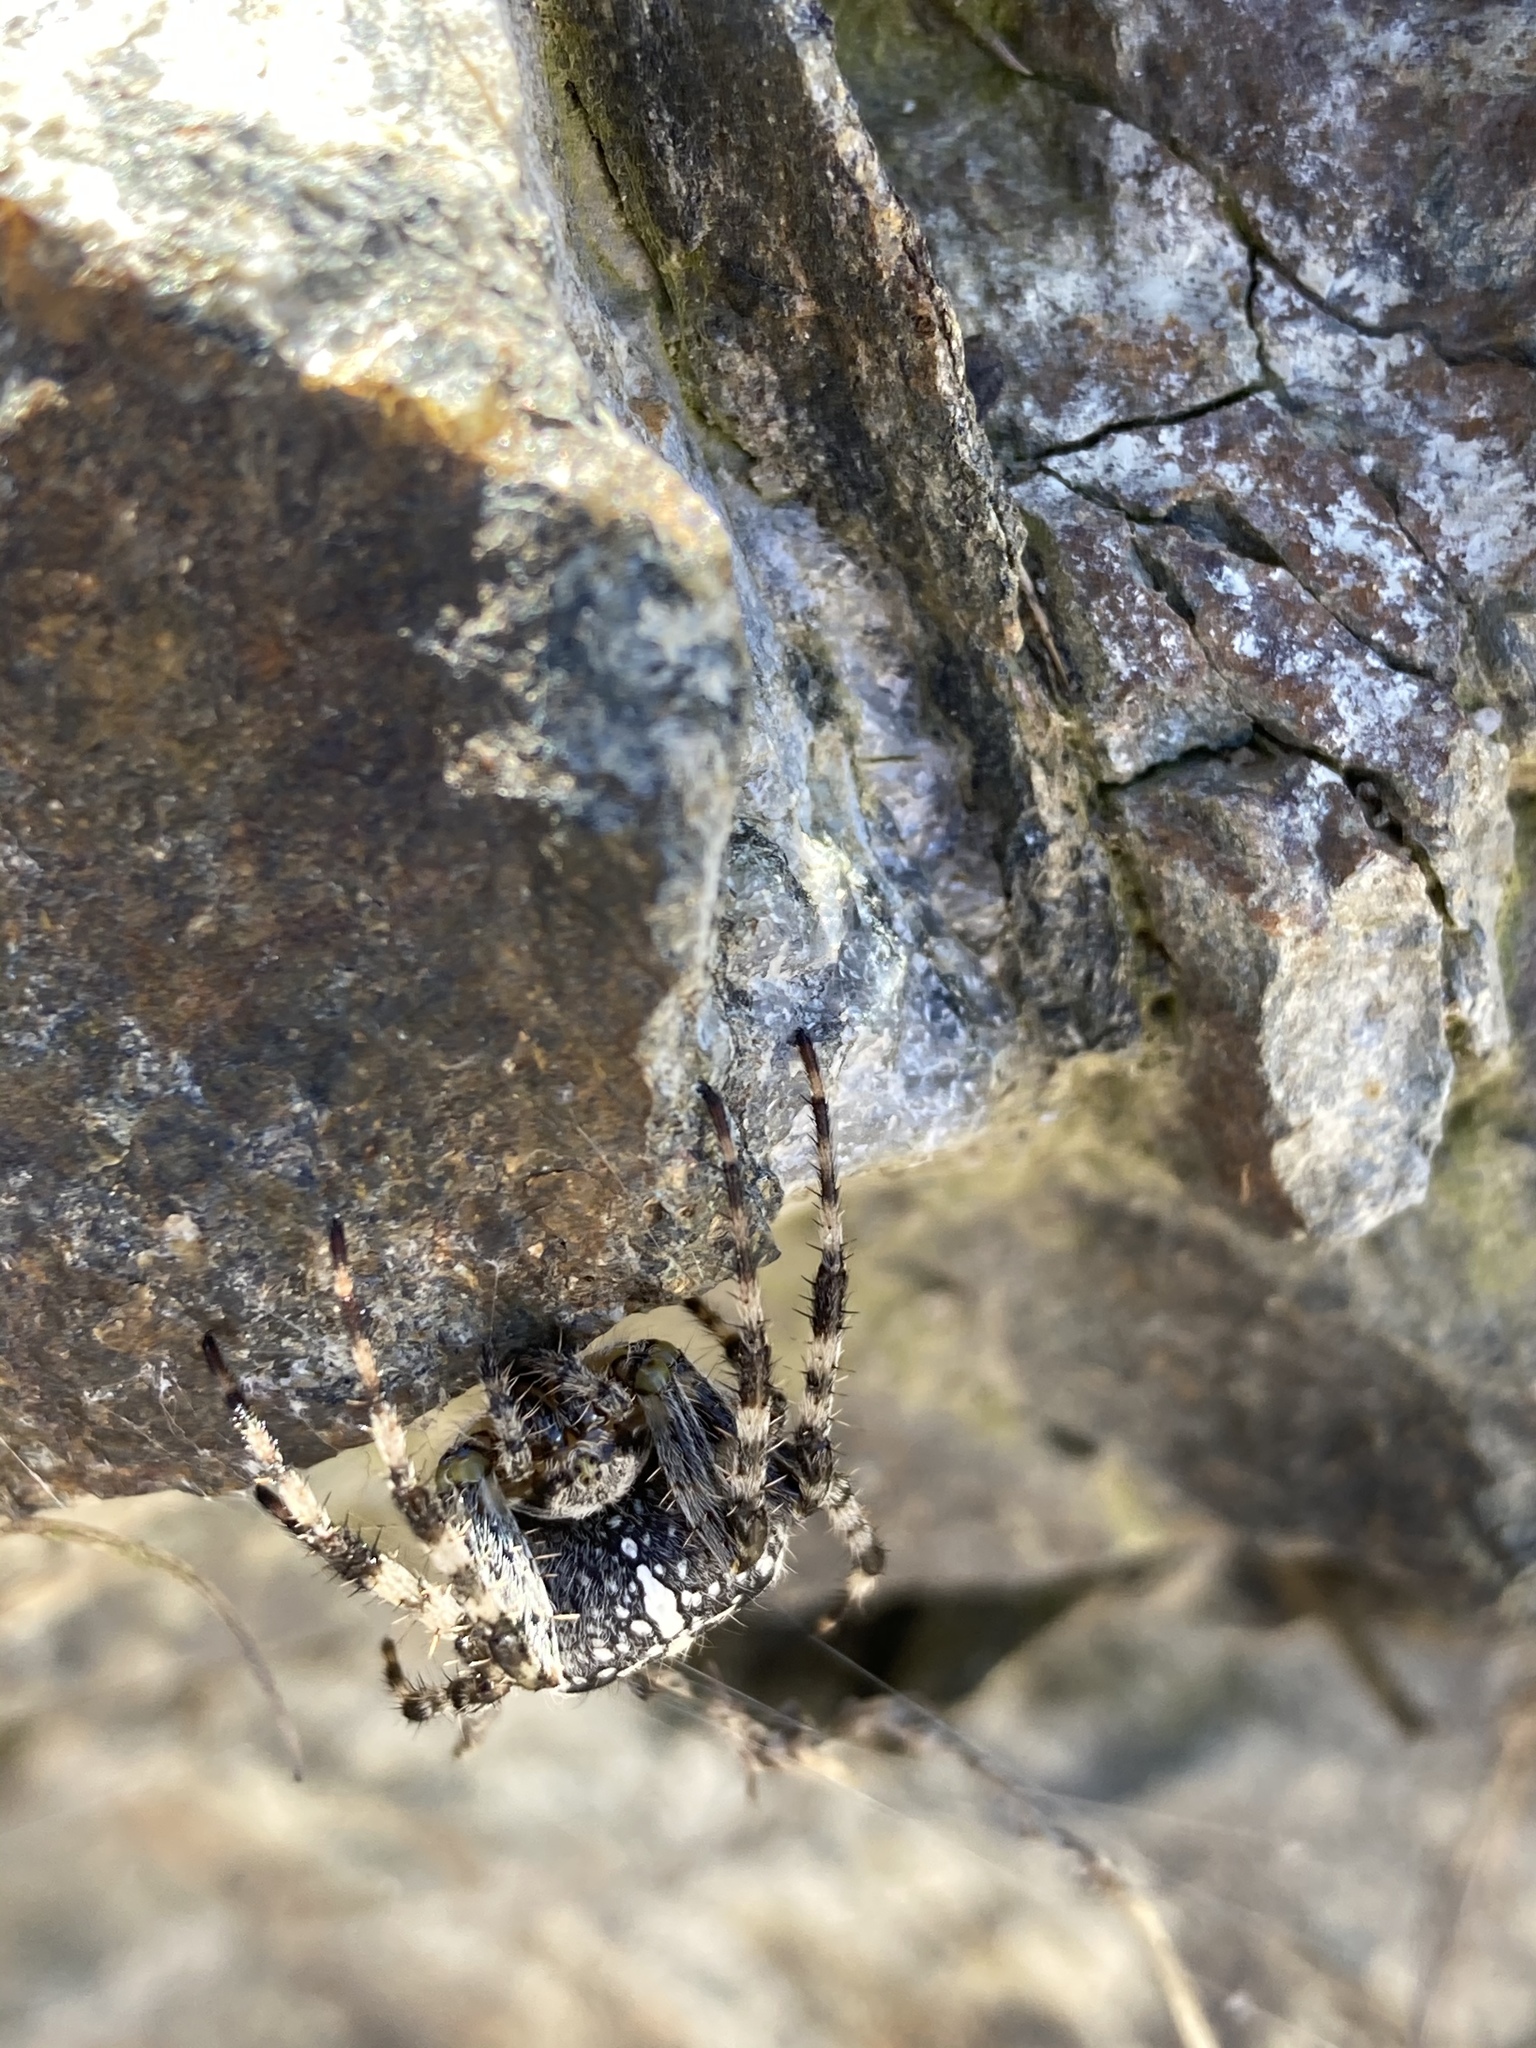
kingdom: Animalia
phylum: Arthropoda
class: Arachnida
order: Araneae
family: Araneidae
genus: Araneus
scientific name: Araneus diadematus
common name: Cross orbweaver
